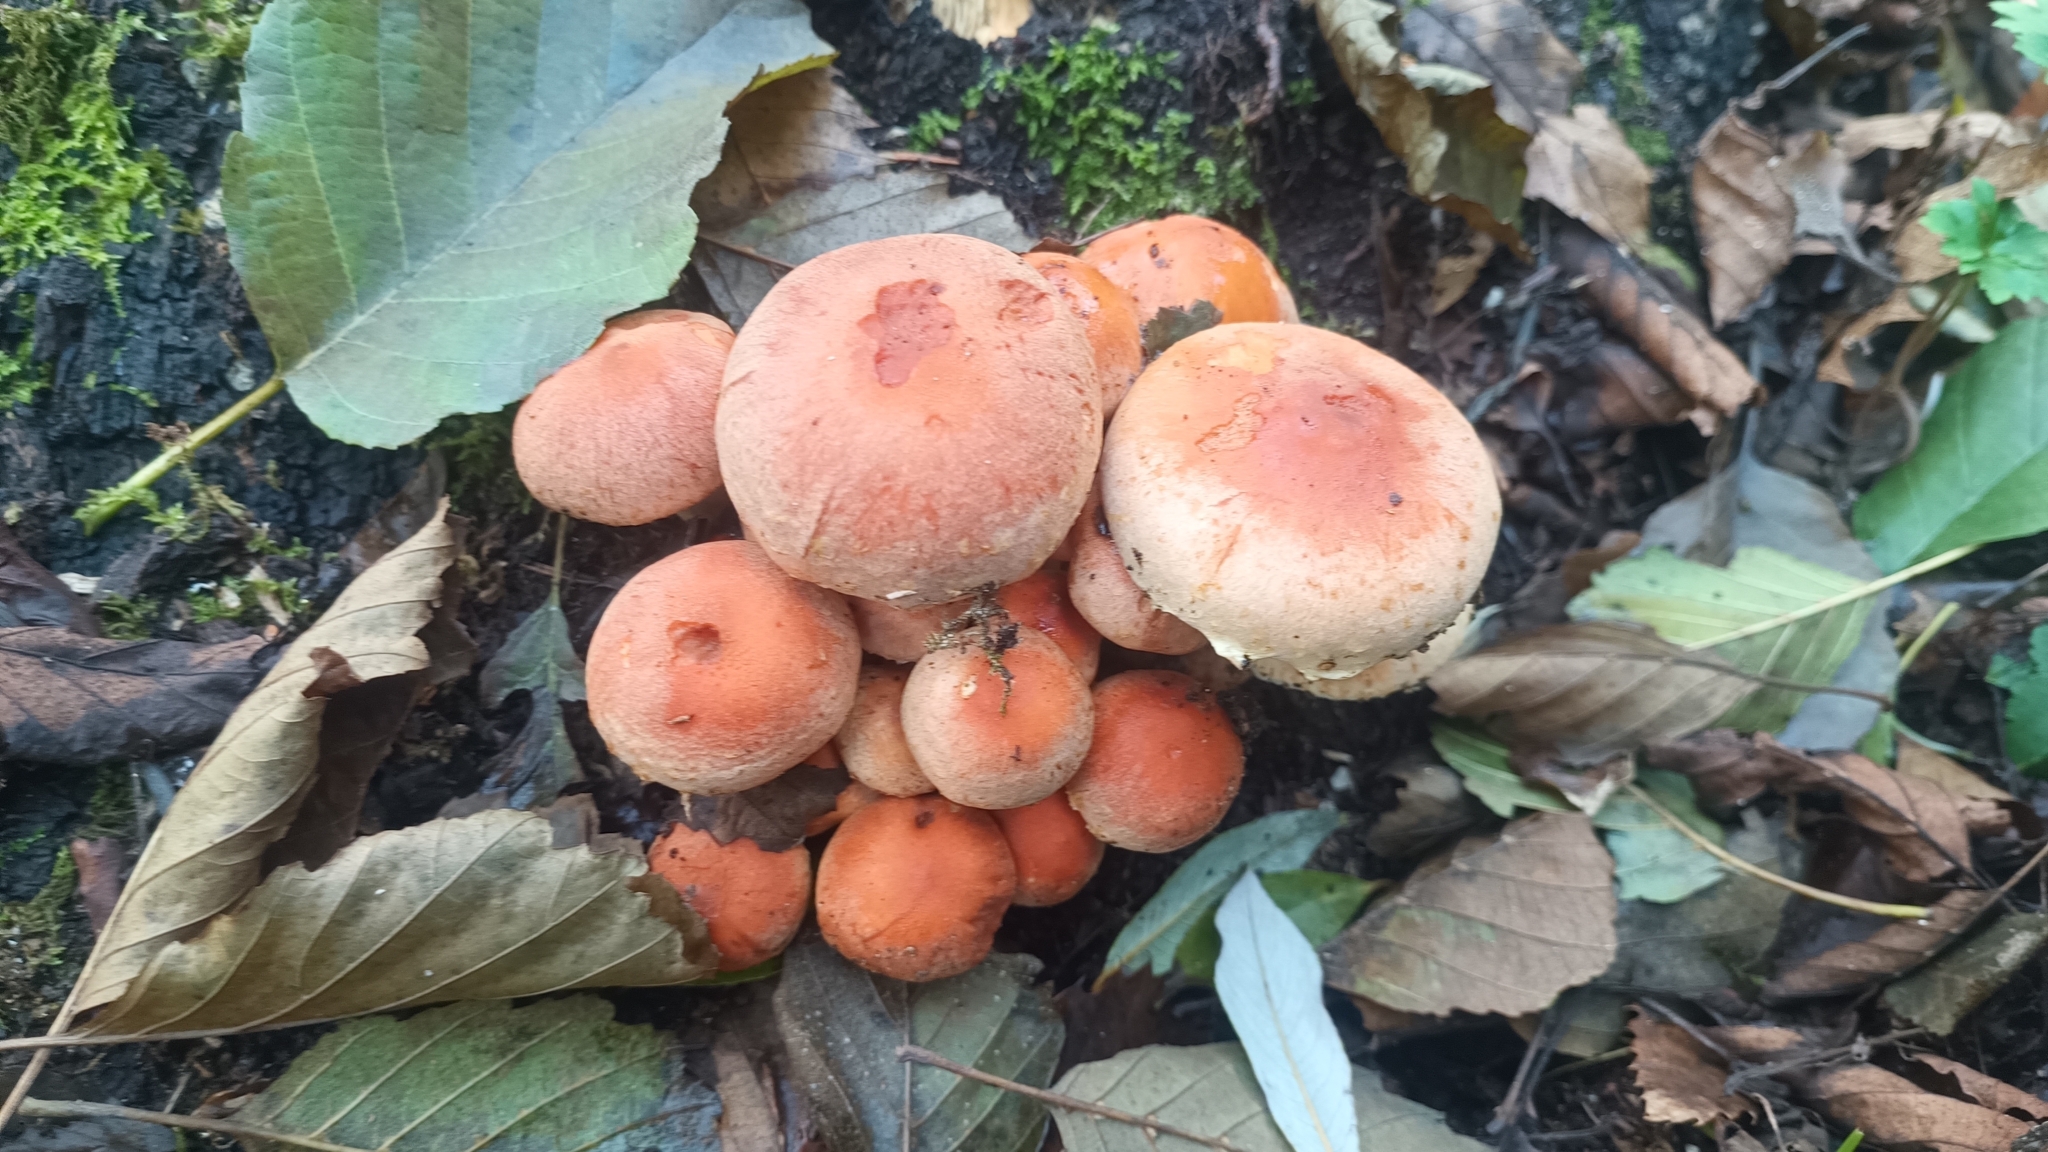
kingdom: Fungi
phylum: Basidiomycota
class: Agaricomycetes
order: Agaricales
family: Strophariaceae
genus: Hypholoma
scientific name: Hypholoma lateritium
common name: Brick caps
